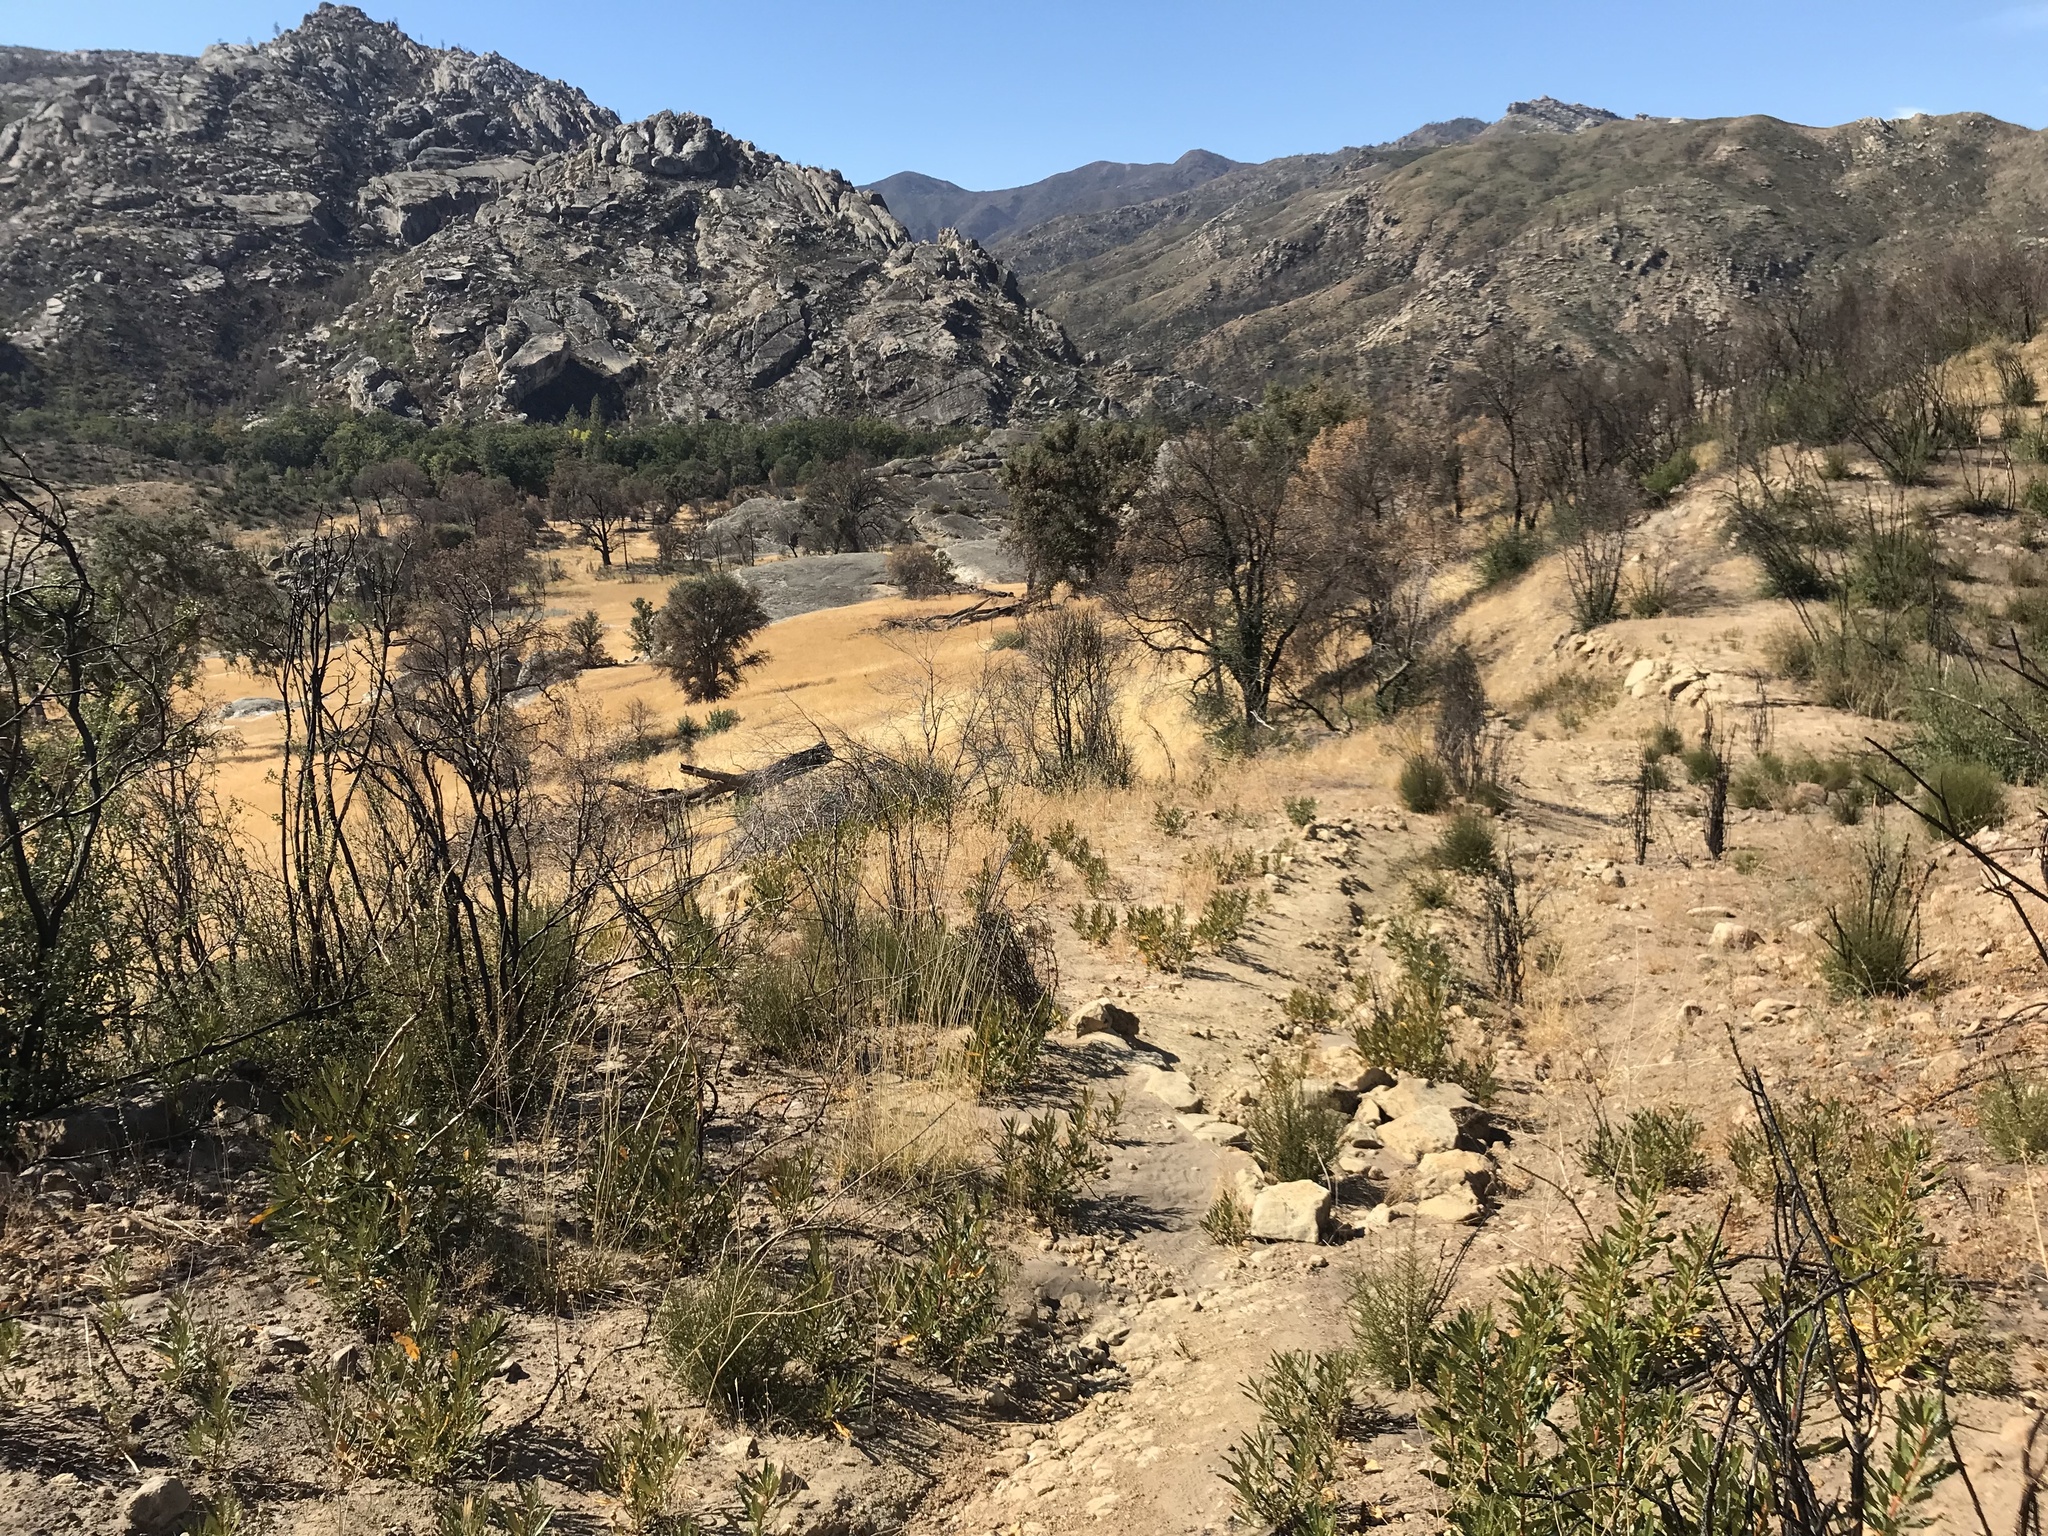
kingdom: Plantae
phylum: Tracheophyta
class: Magnoliopsida
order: Rosales
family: Rosaceae
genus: Adenostoma
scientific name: Adenostoma fasciculatum
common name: Chamise
